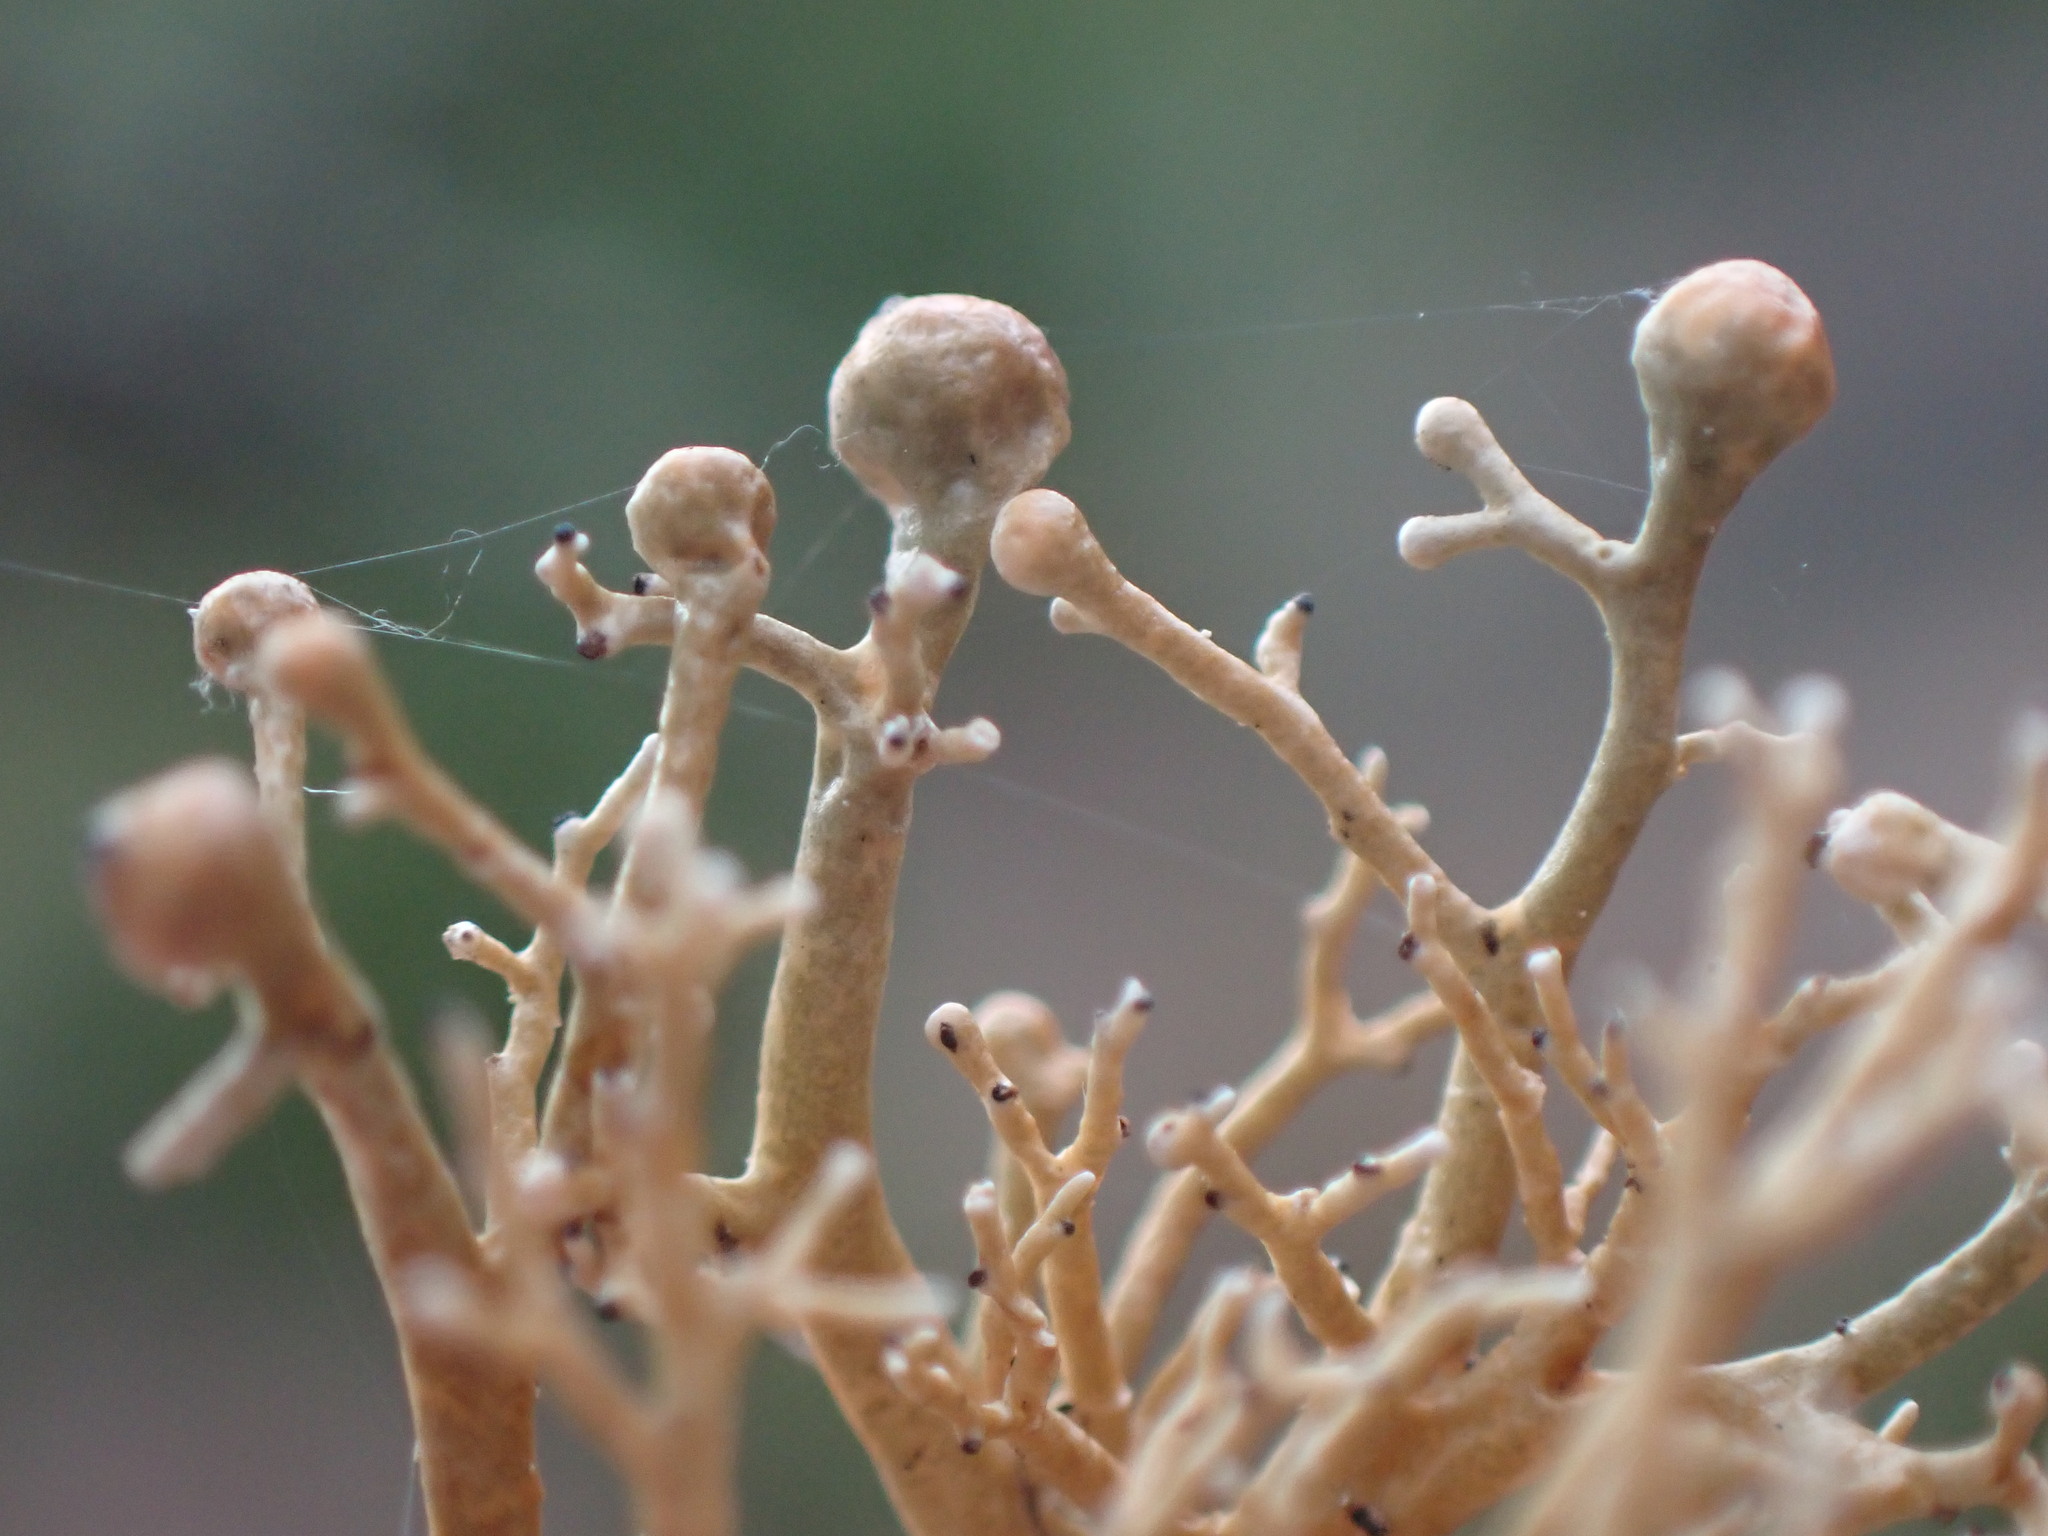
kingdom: Fungi
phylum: Ascomycota
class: Lecanoromycetes
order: Lecanorales
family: Sphaerophoraceae
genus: Sphaerophorus
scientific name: Sphaerophorus venerabilis
